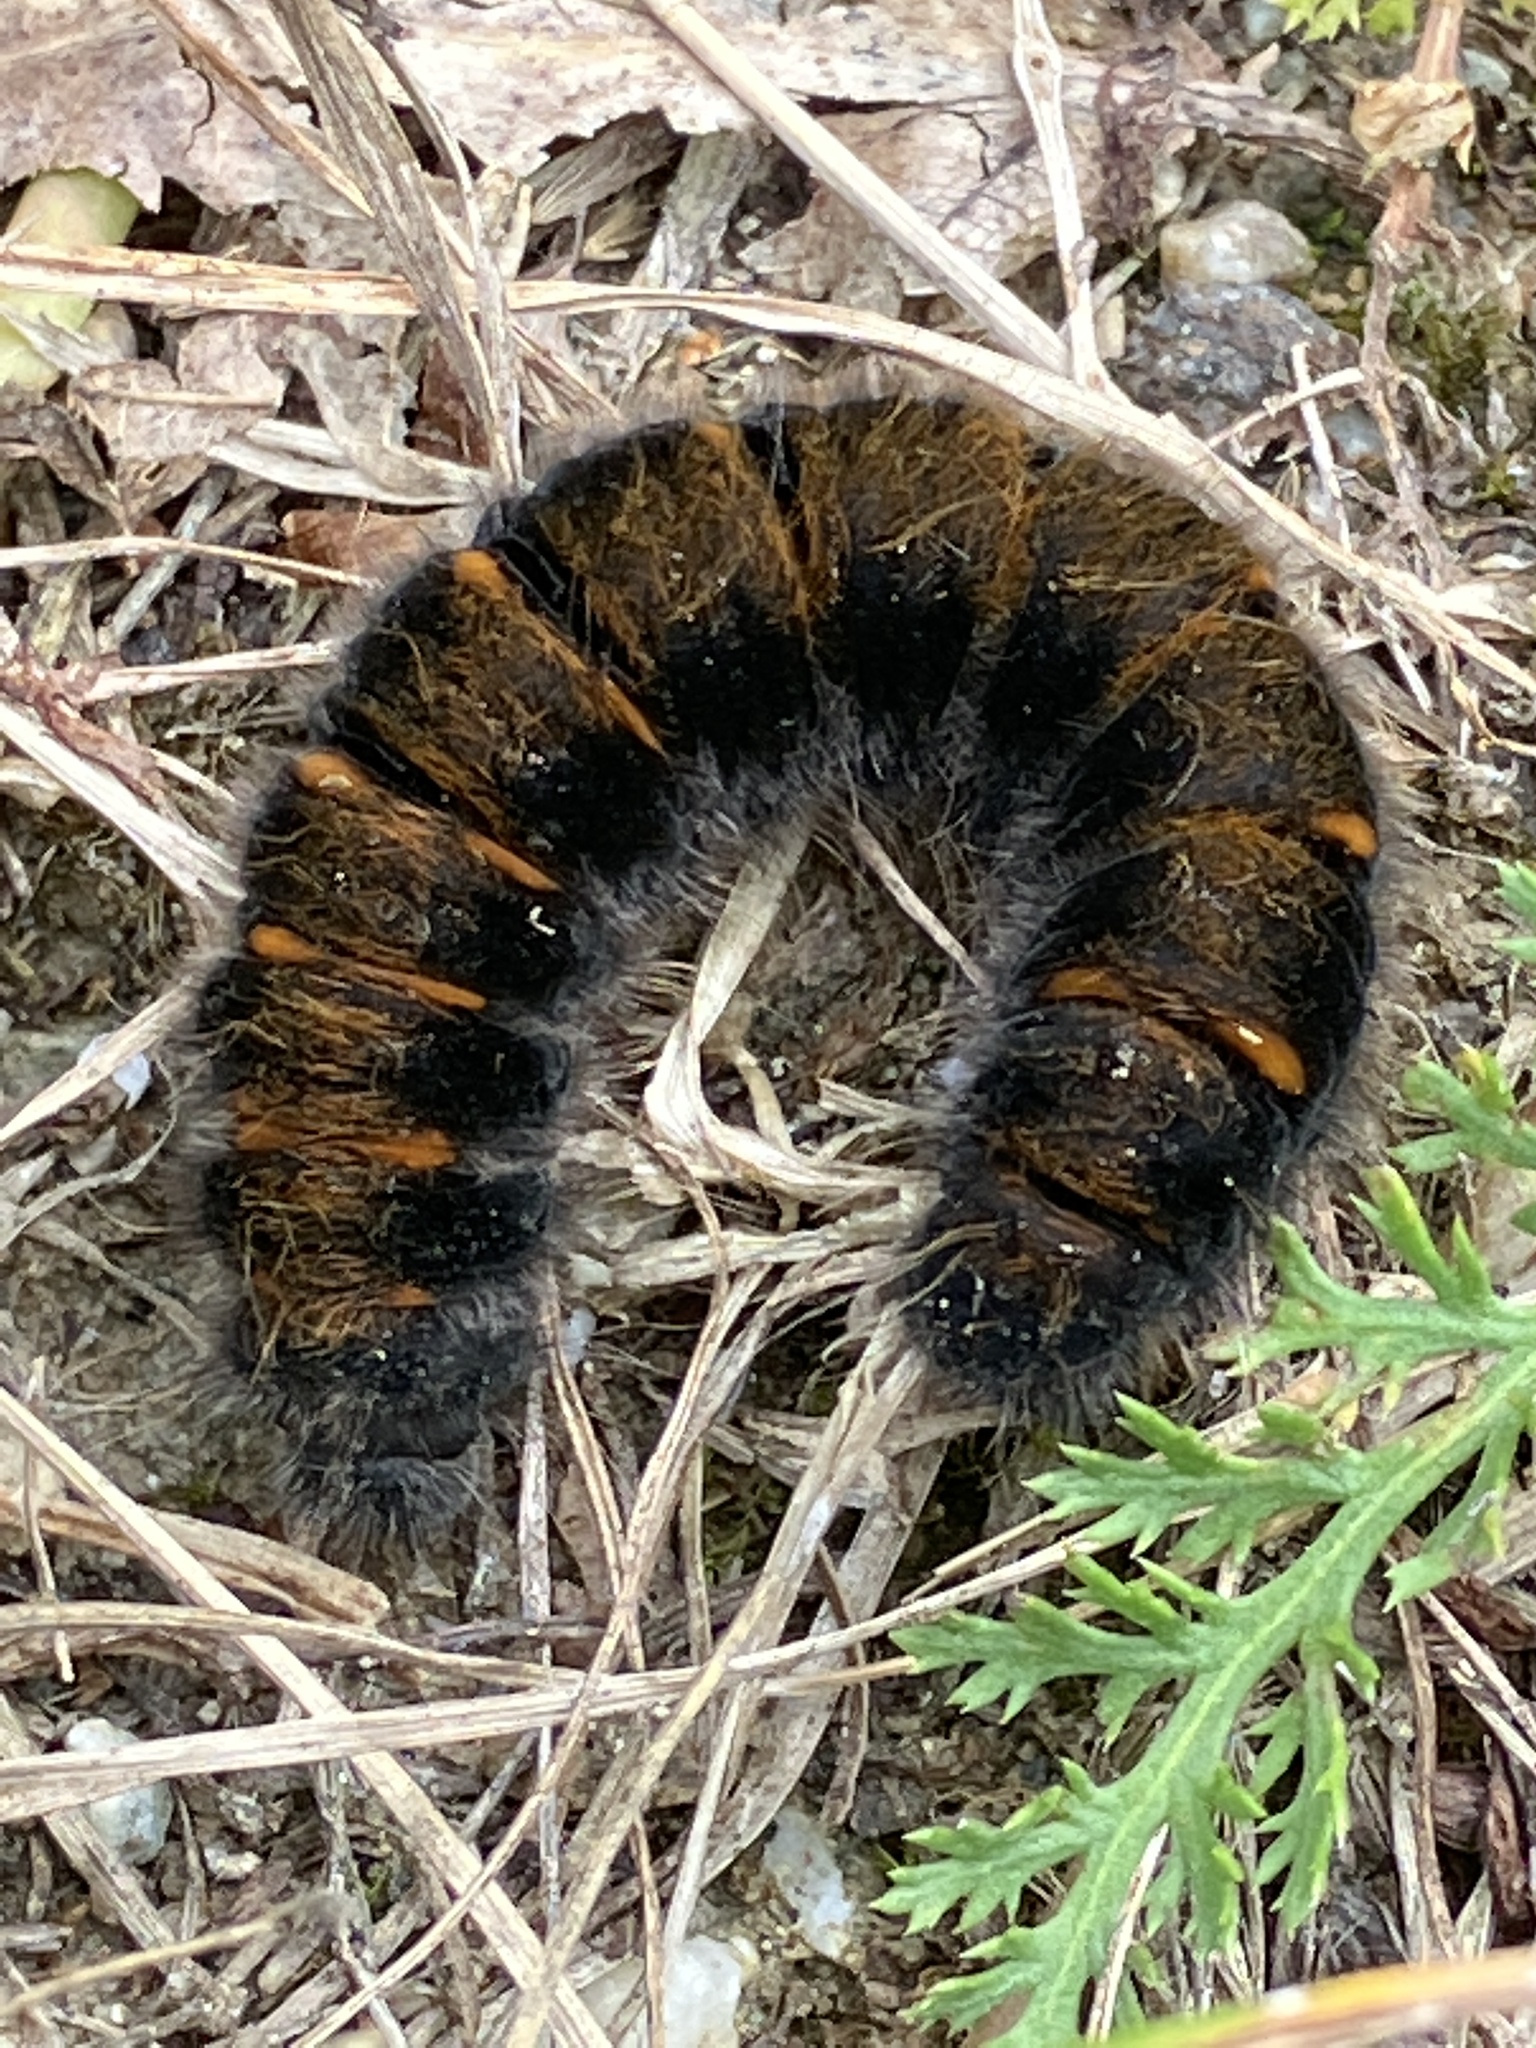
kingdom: Animalia
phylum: Arthropoda
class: Insecta
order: Lepidoptera
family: Lasiocampidae
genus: Macrothylacia
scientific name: Macrothylacia rubi
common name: Fox moth
